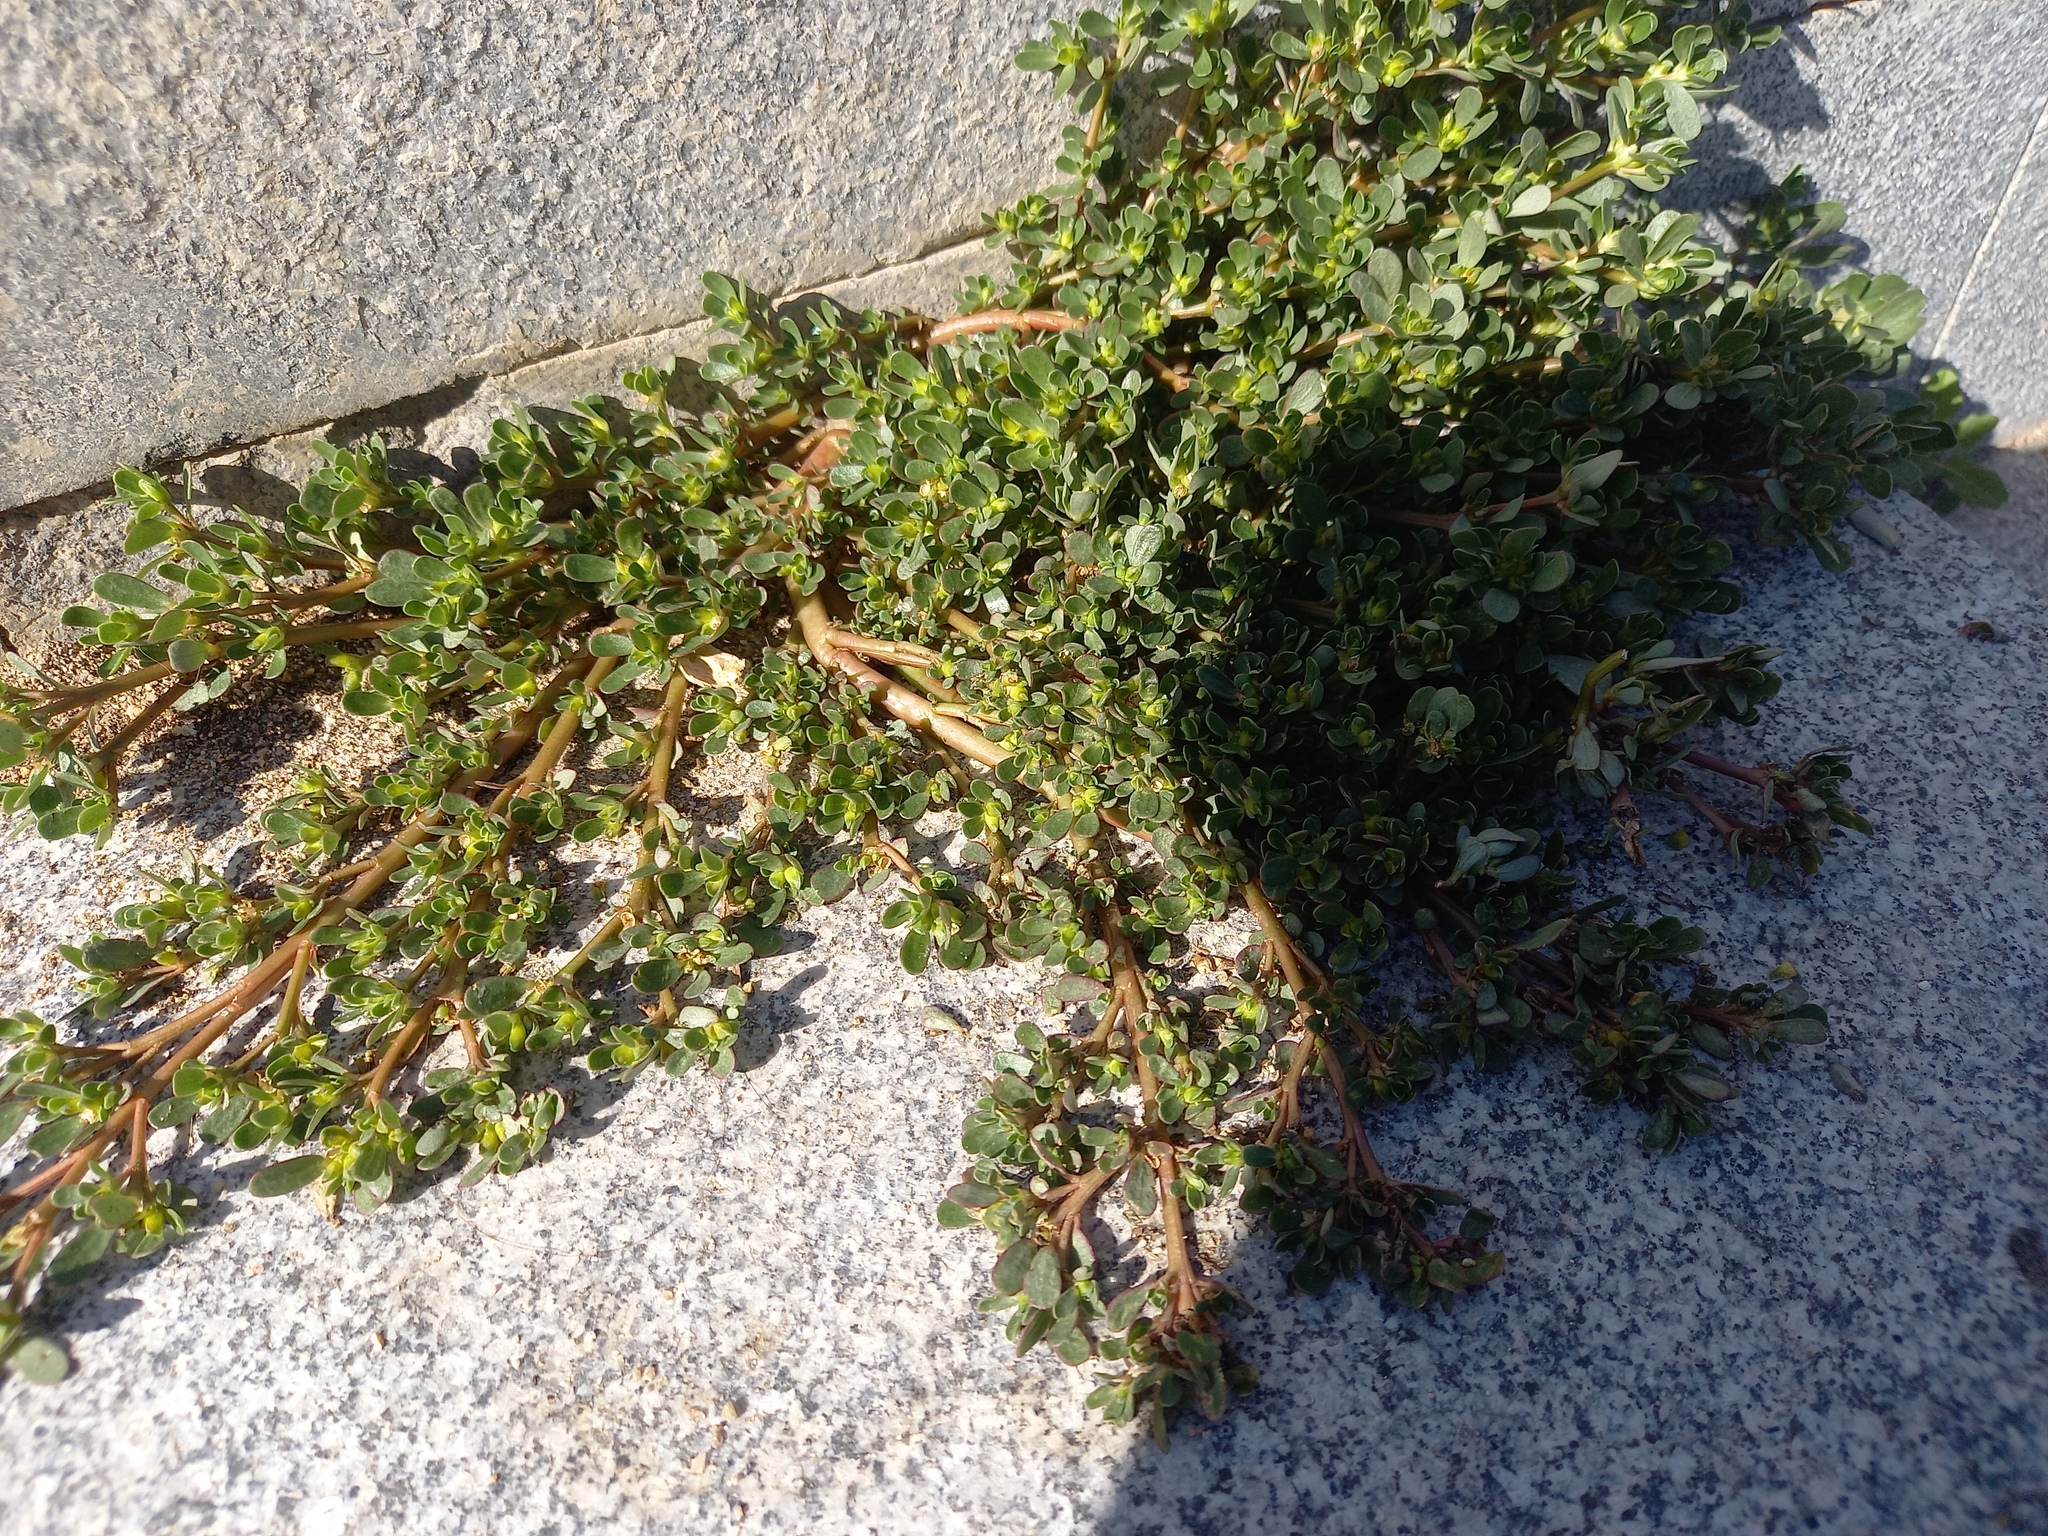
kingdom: Plantae
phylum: Tracheophyta
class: Magnoliopsida
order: Caryophyllales
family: Portulacaceae
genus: Portulaca
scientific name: Portulaca oleracea
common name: Common purslane
